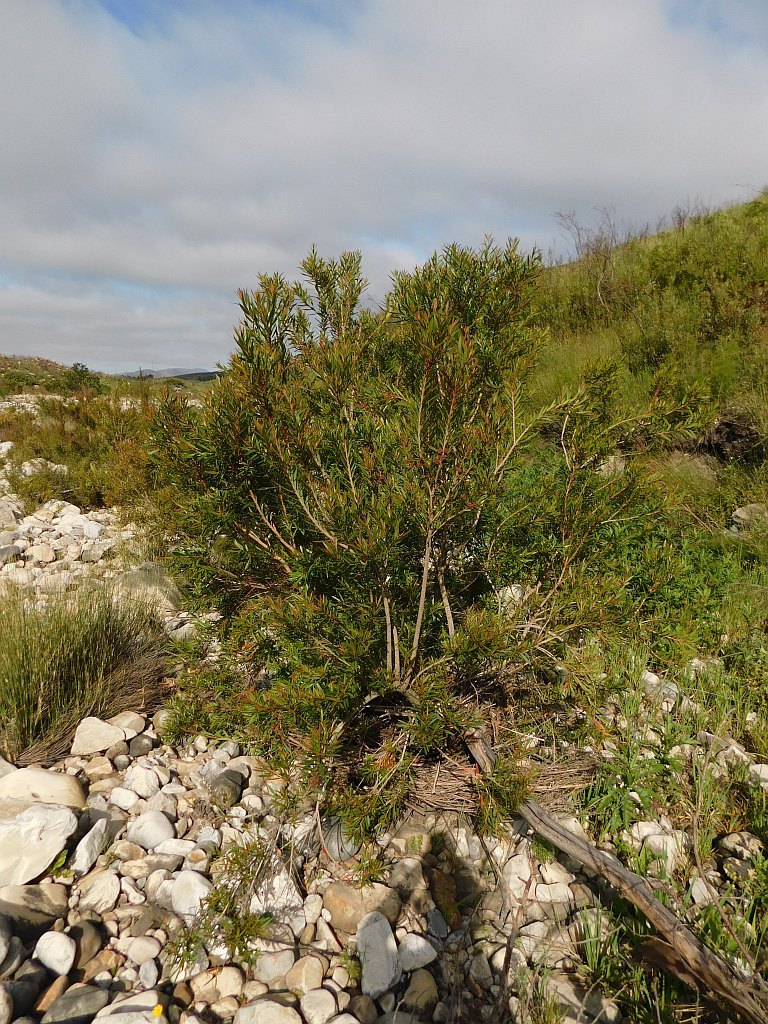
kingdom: Plantae
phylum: Tracheophyta
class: Magnoliopsida
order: Myrtales
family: Myrtaceae
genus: Callistemon
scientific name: Callistemon lanceolatus
